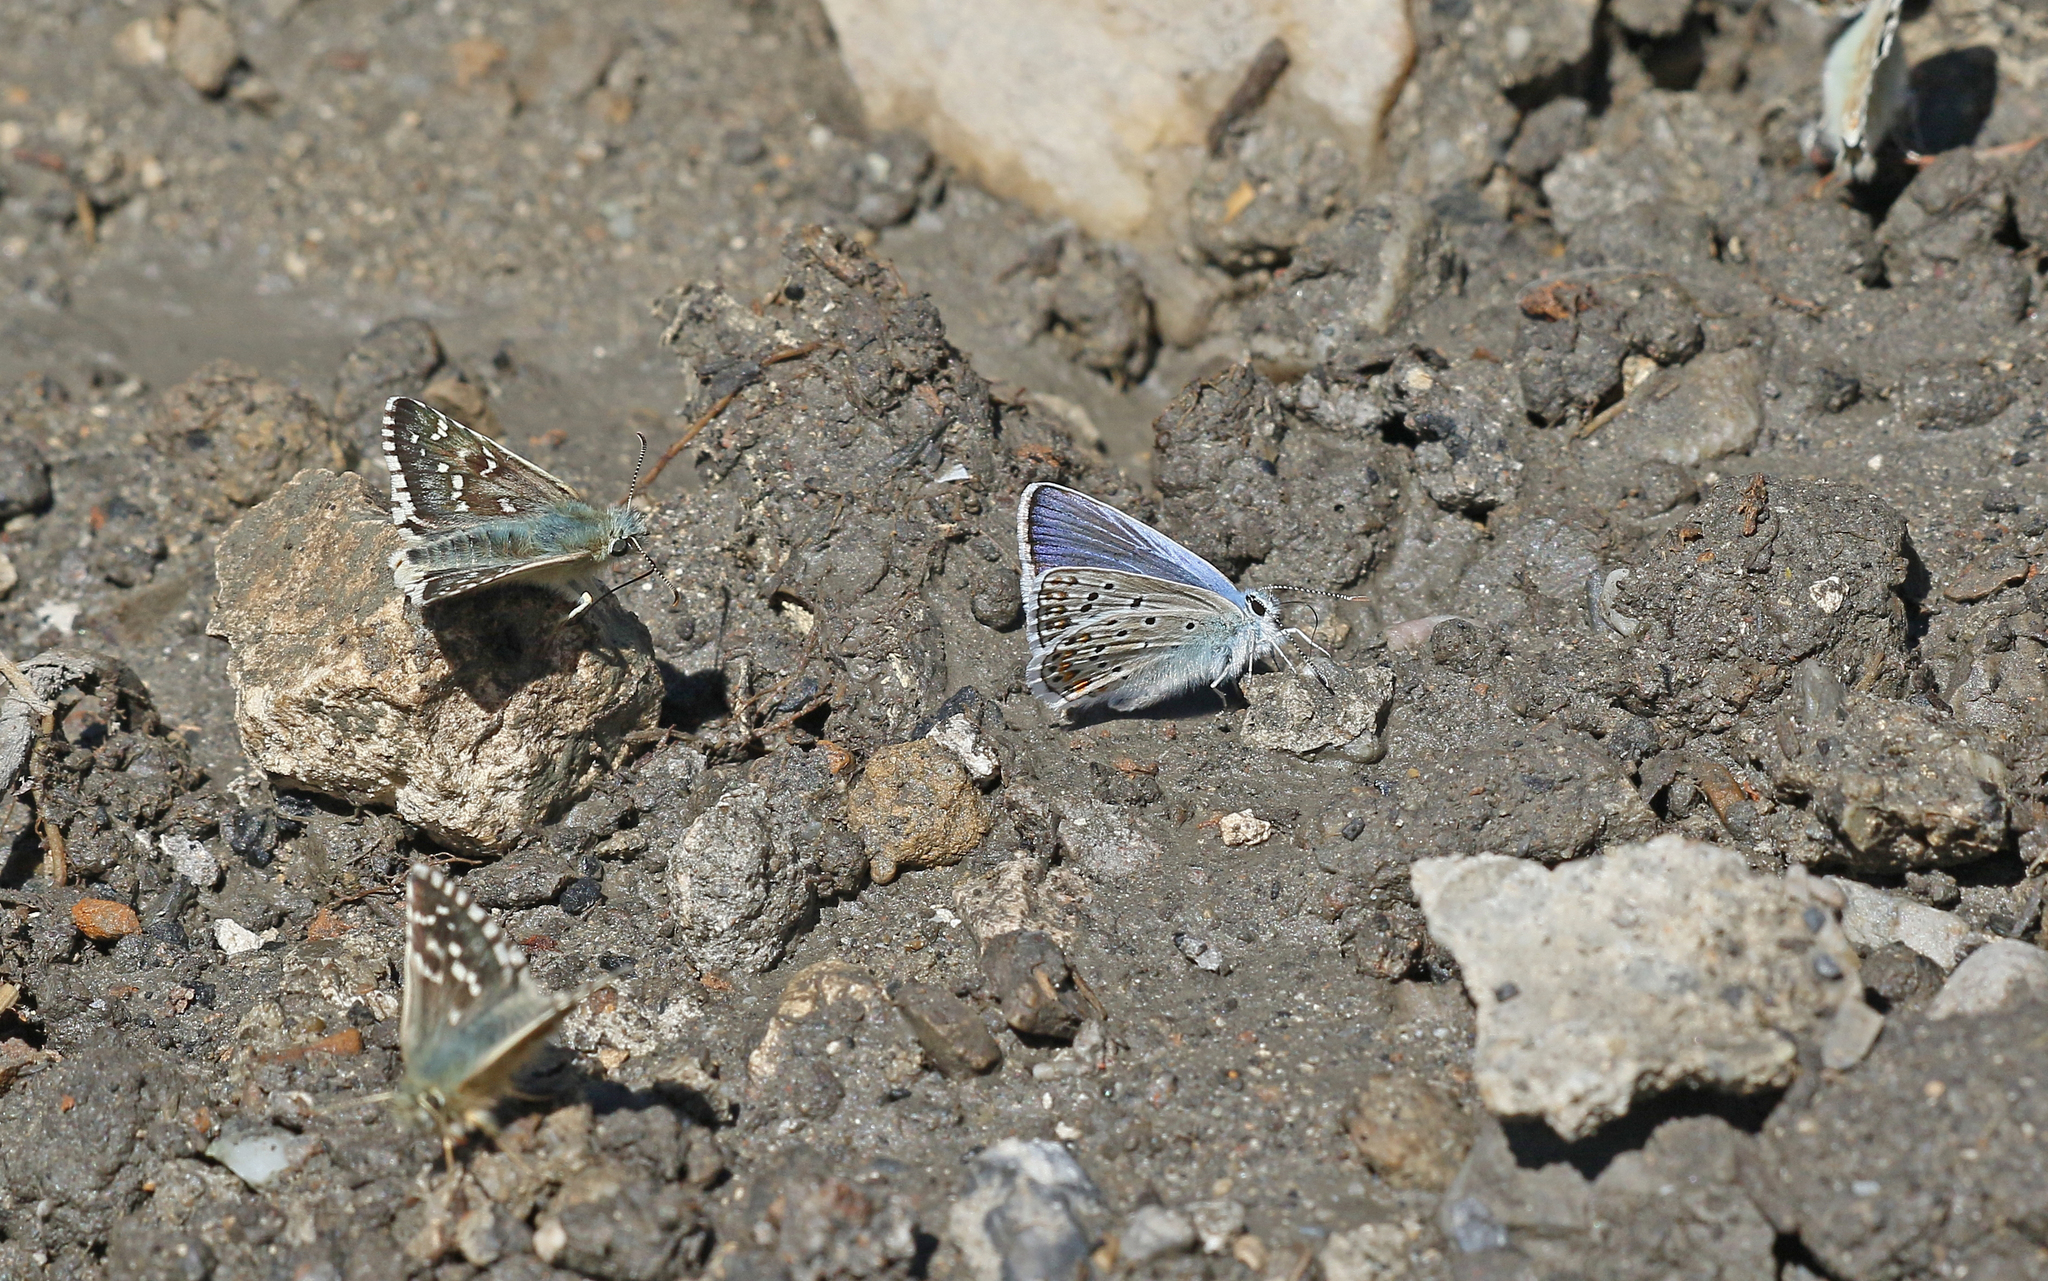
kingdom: Animalia
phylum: Arthropoda
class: Insecta
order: Lepidoptera
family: Lycaenidae
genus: Plebicula
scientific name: Plebicula escheri
